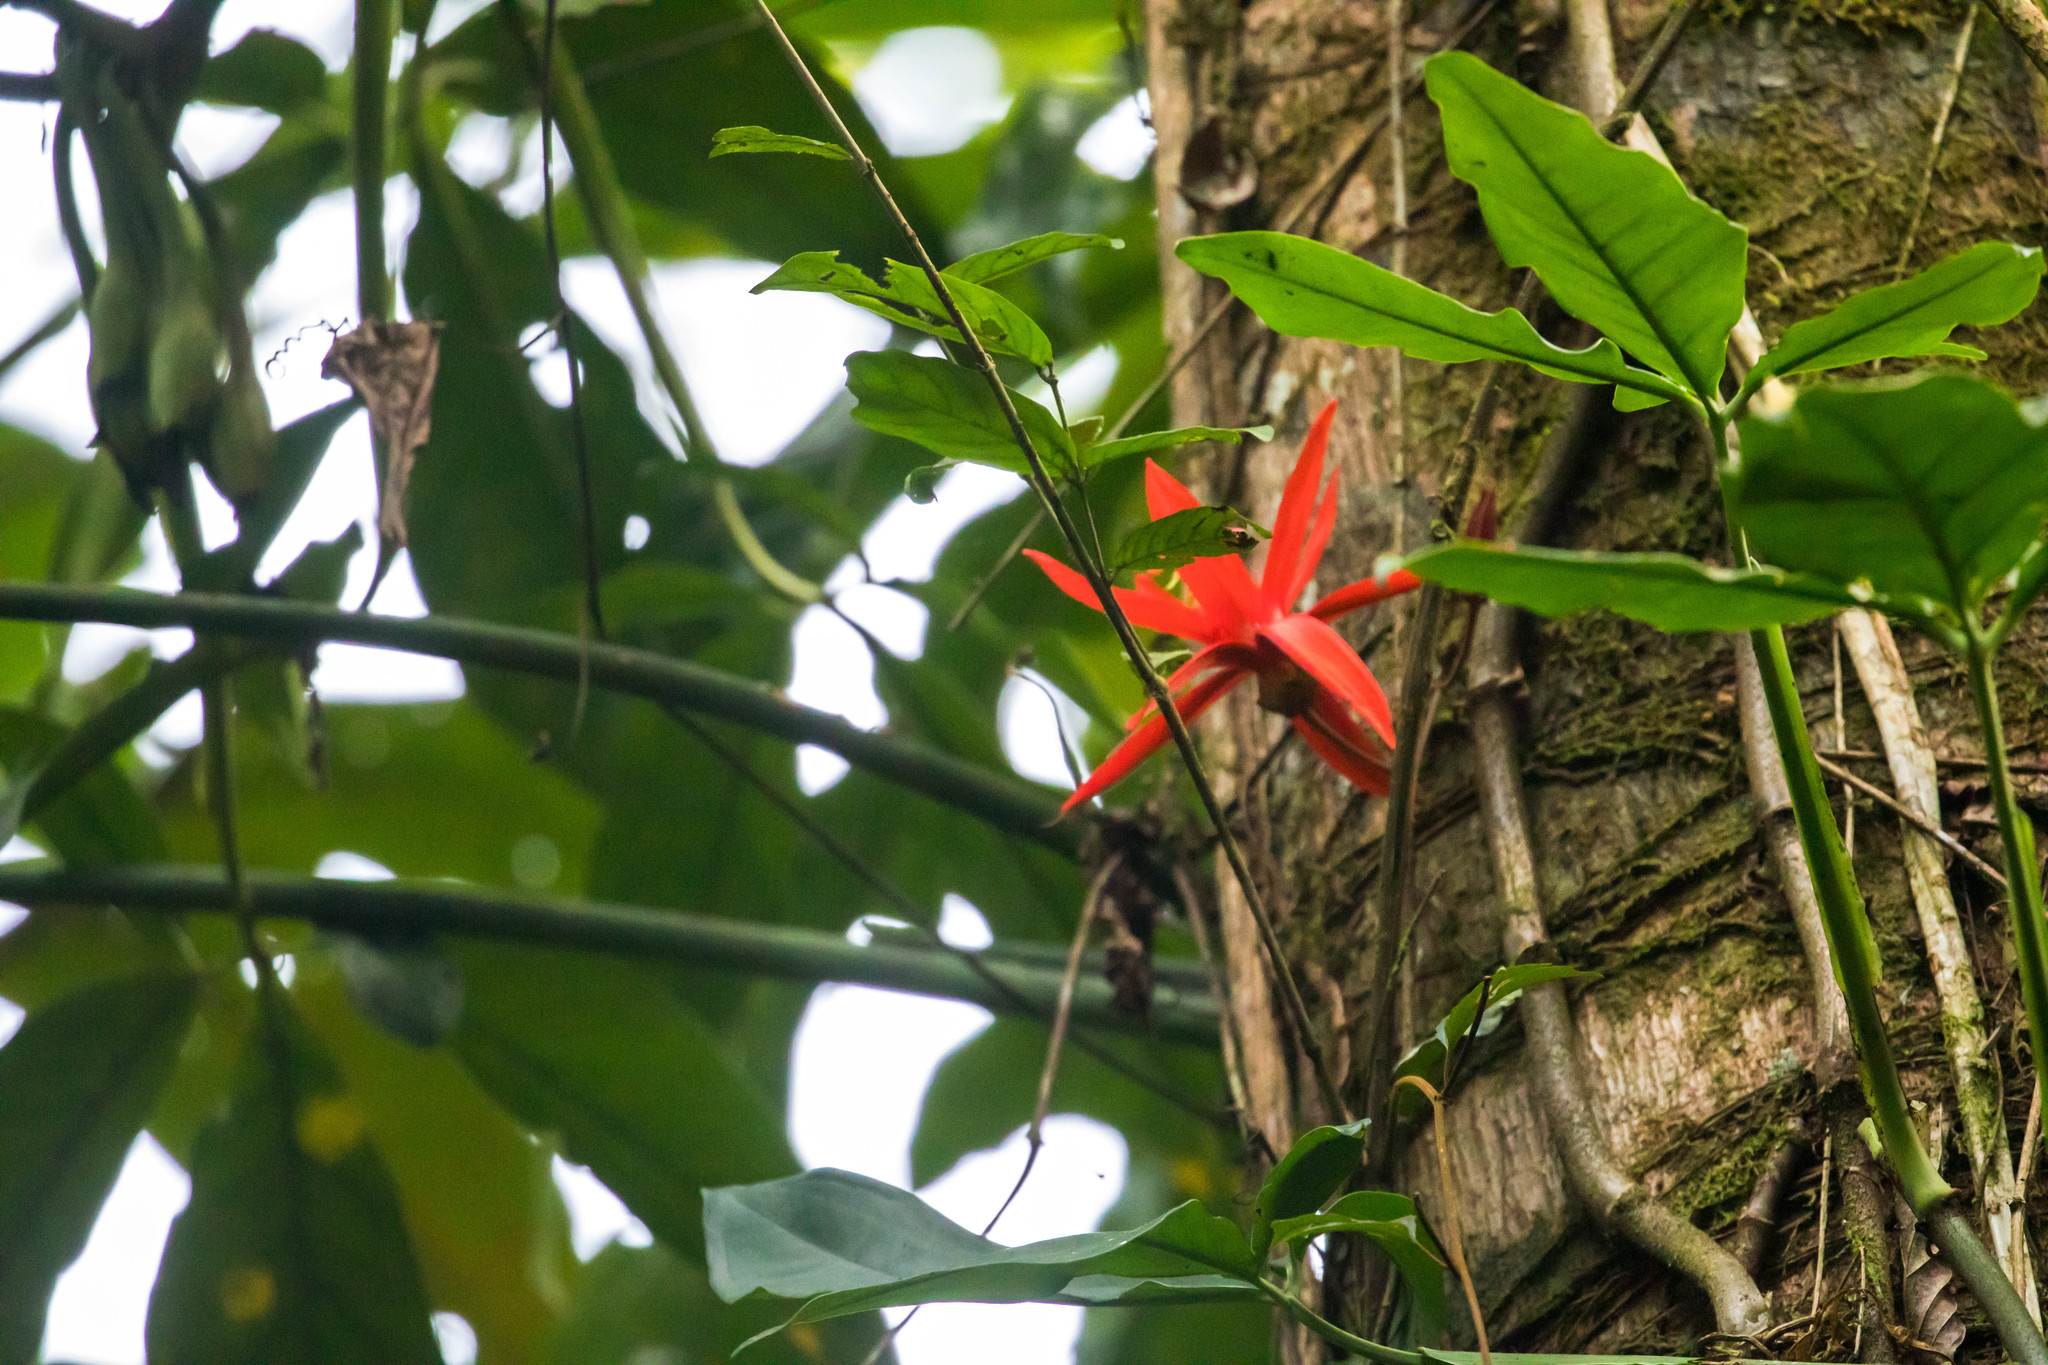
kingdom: Plantae
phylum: Tracheophyta
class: Magnoliopsida
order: Malpighiales
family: Passifloraceae
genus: Passiflora
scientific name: Passiflora vitifolia
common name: Perfumed passionflower
